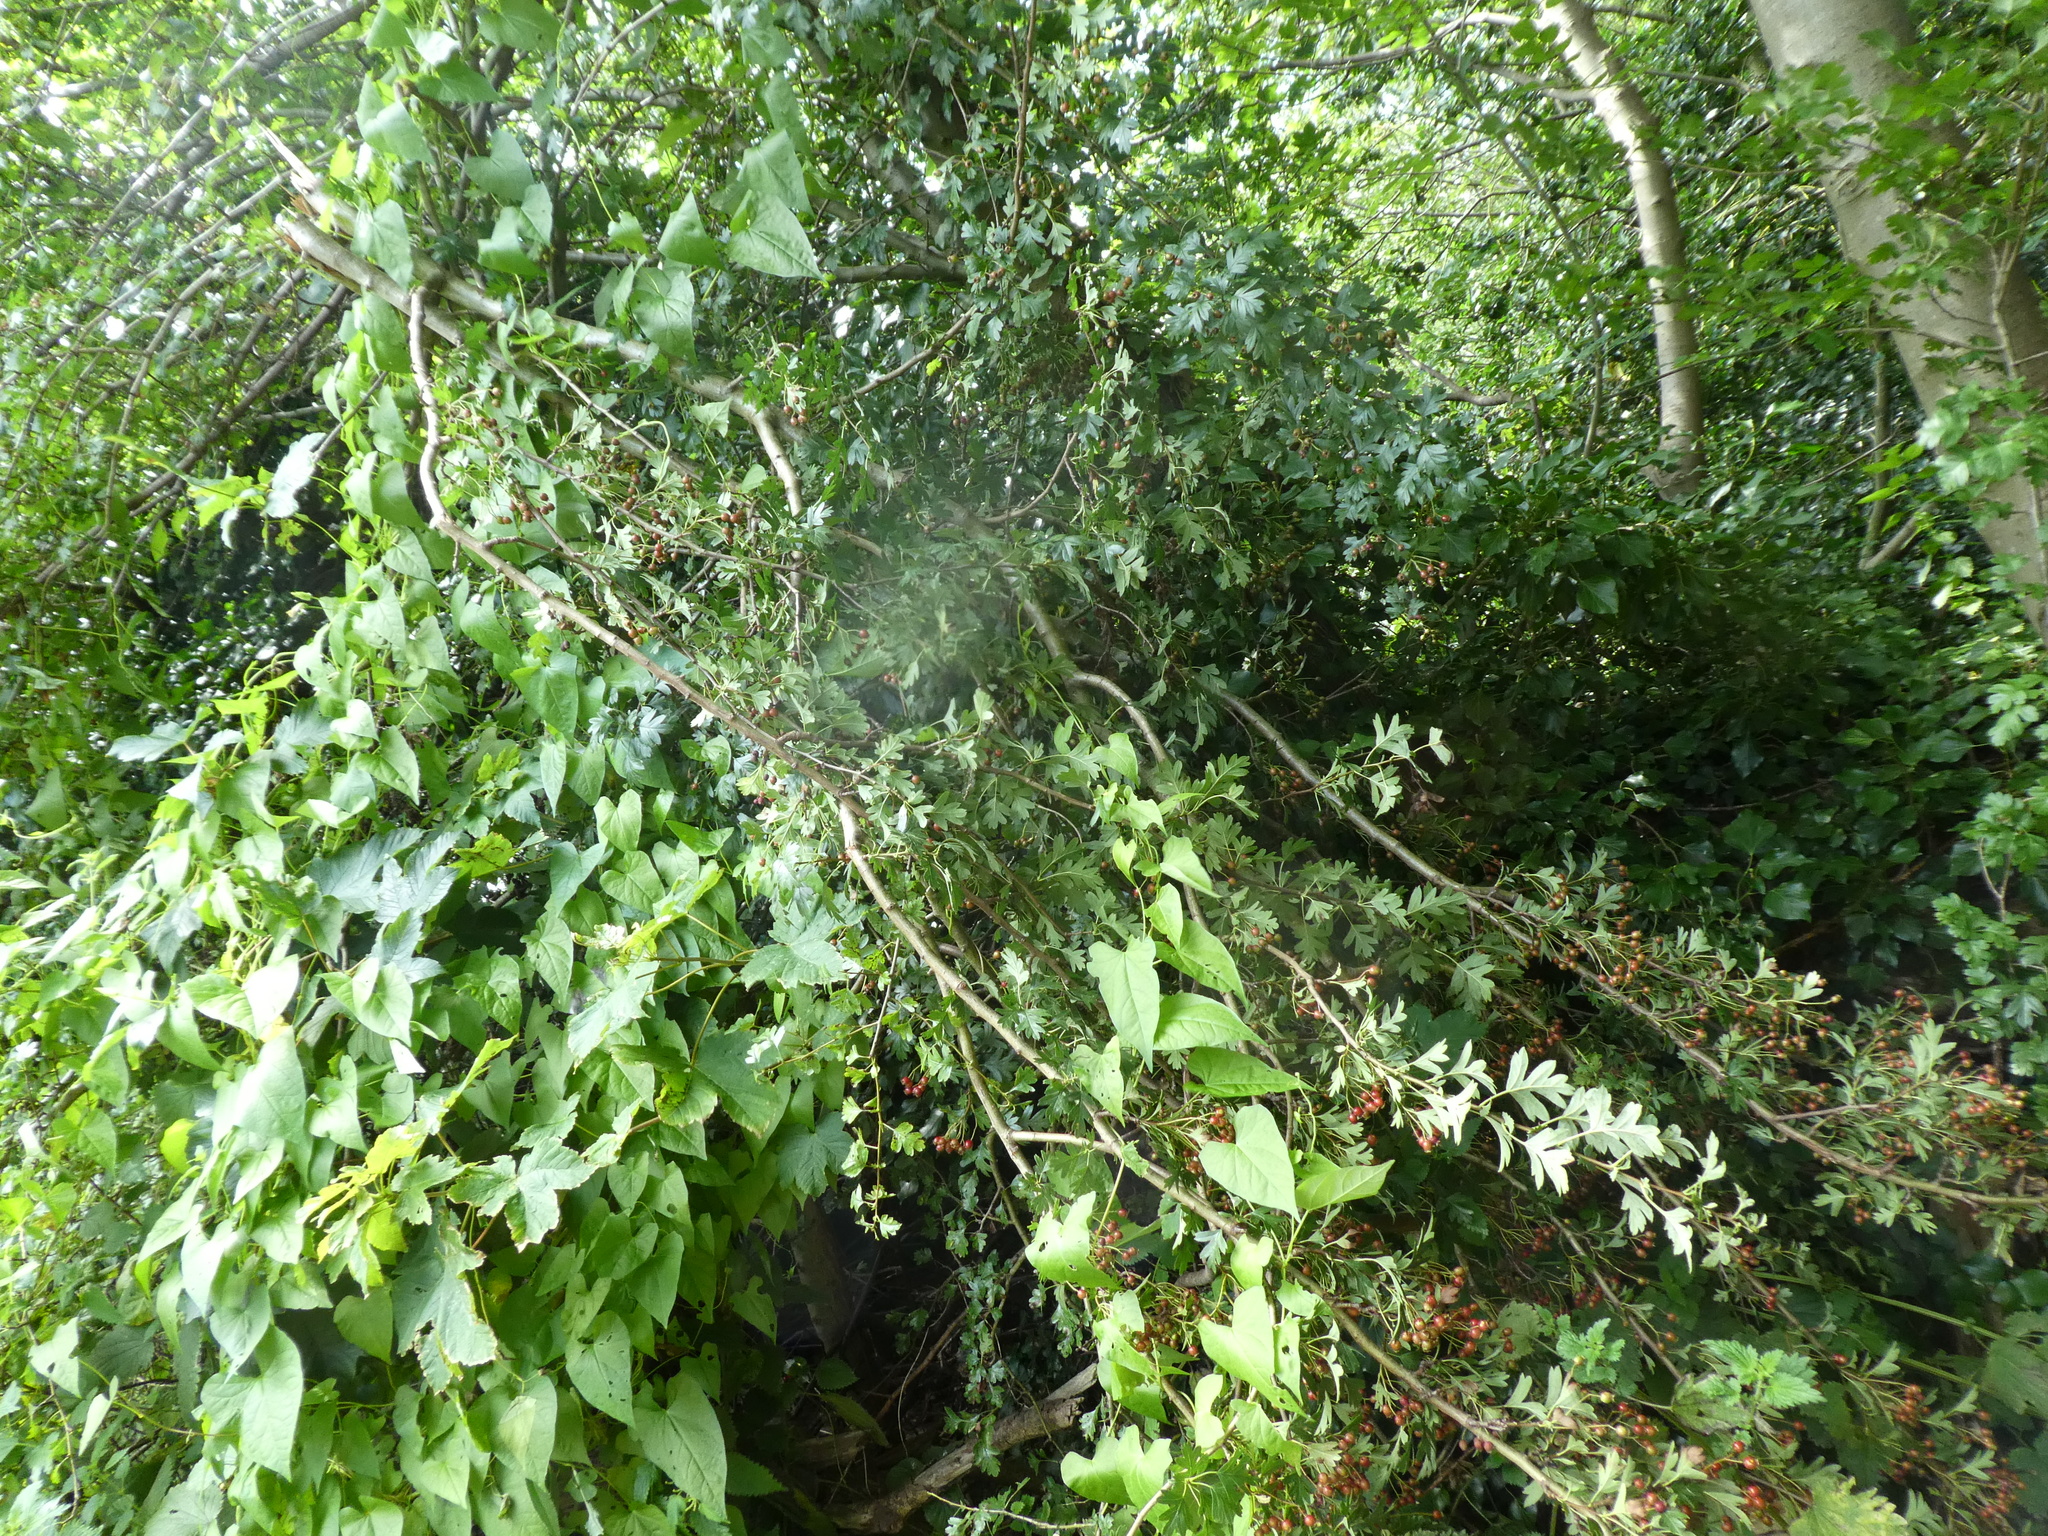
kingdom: Plantae
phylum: Tracheophyta
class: Magnoliopsida
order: Rosales
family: Rosaceae
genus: Crataegus
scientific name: Crataegus monogyna
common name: Hawthorn
